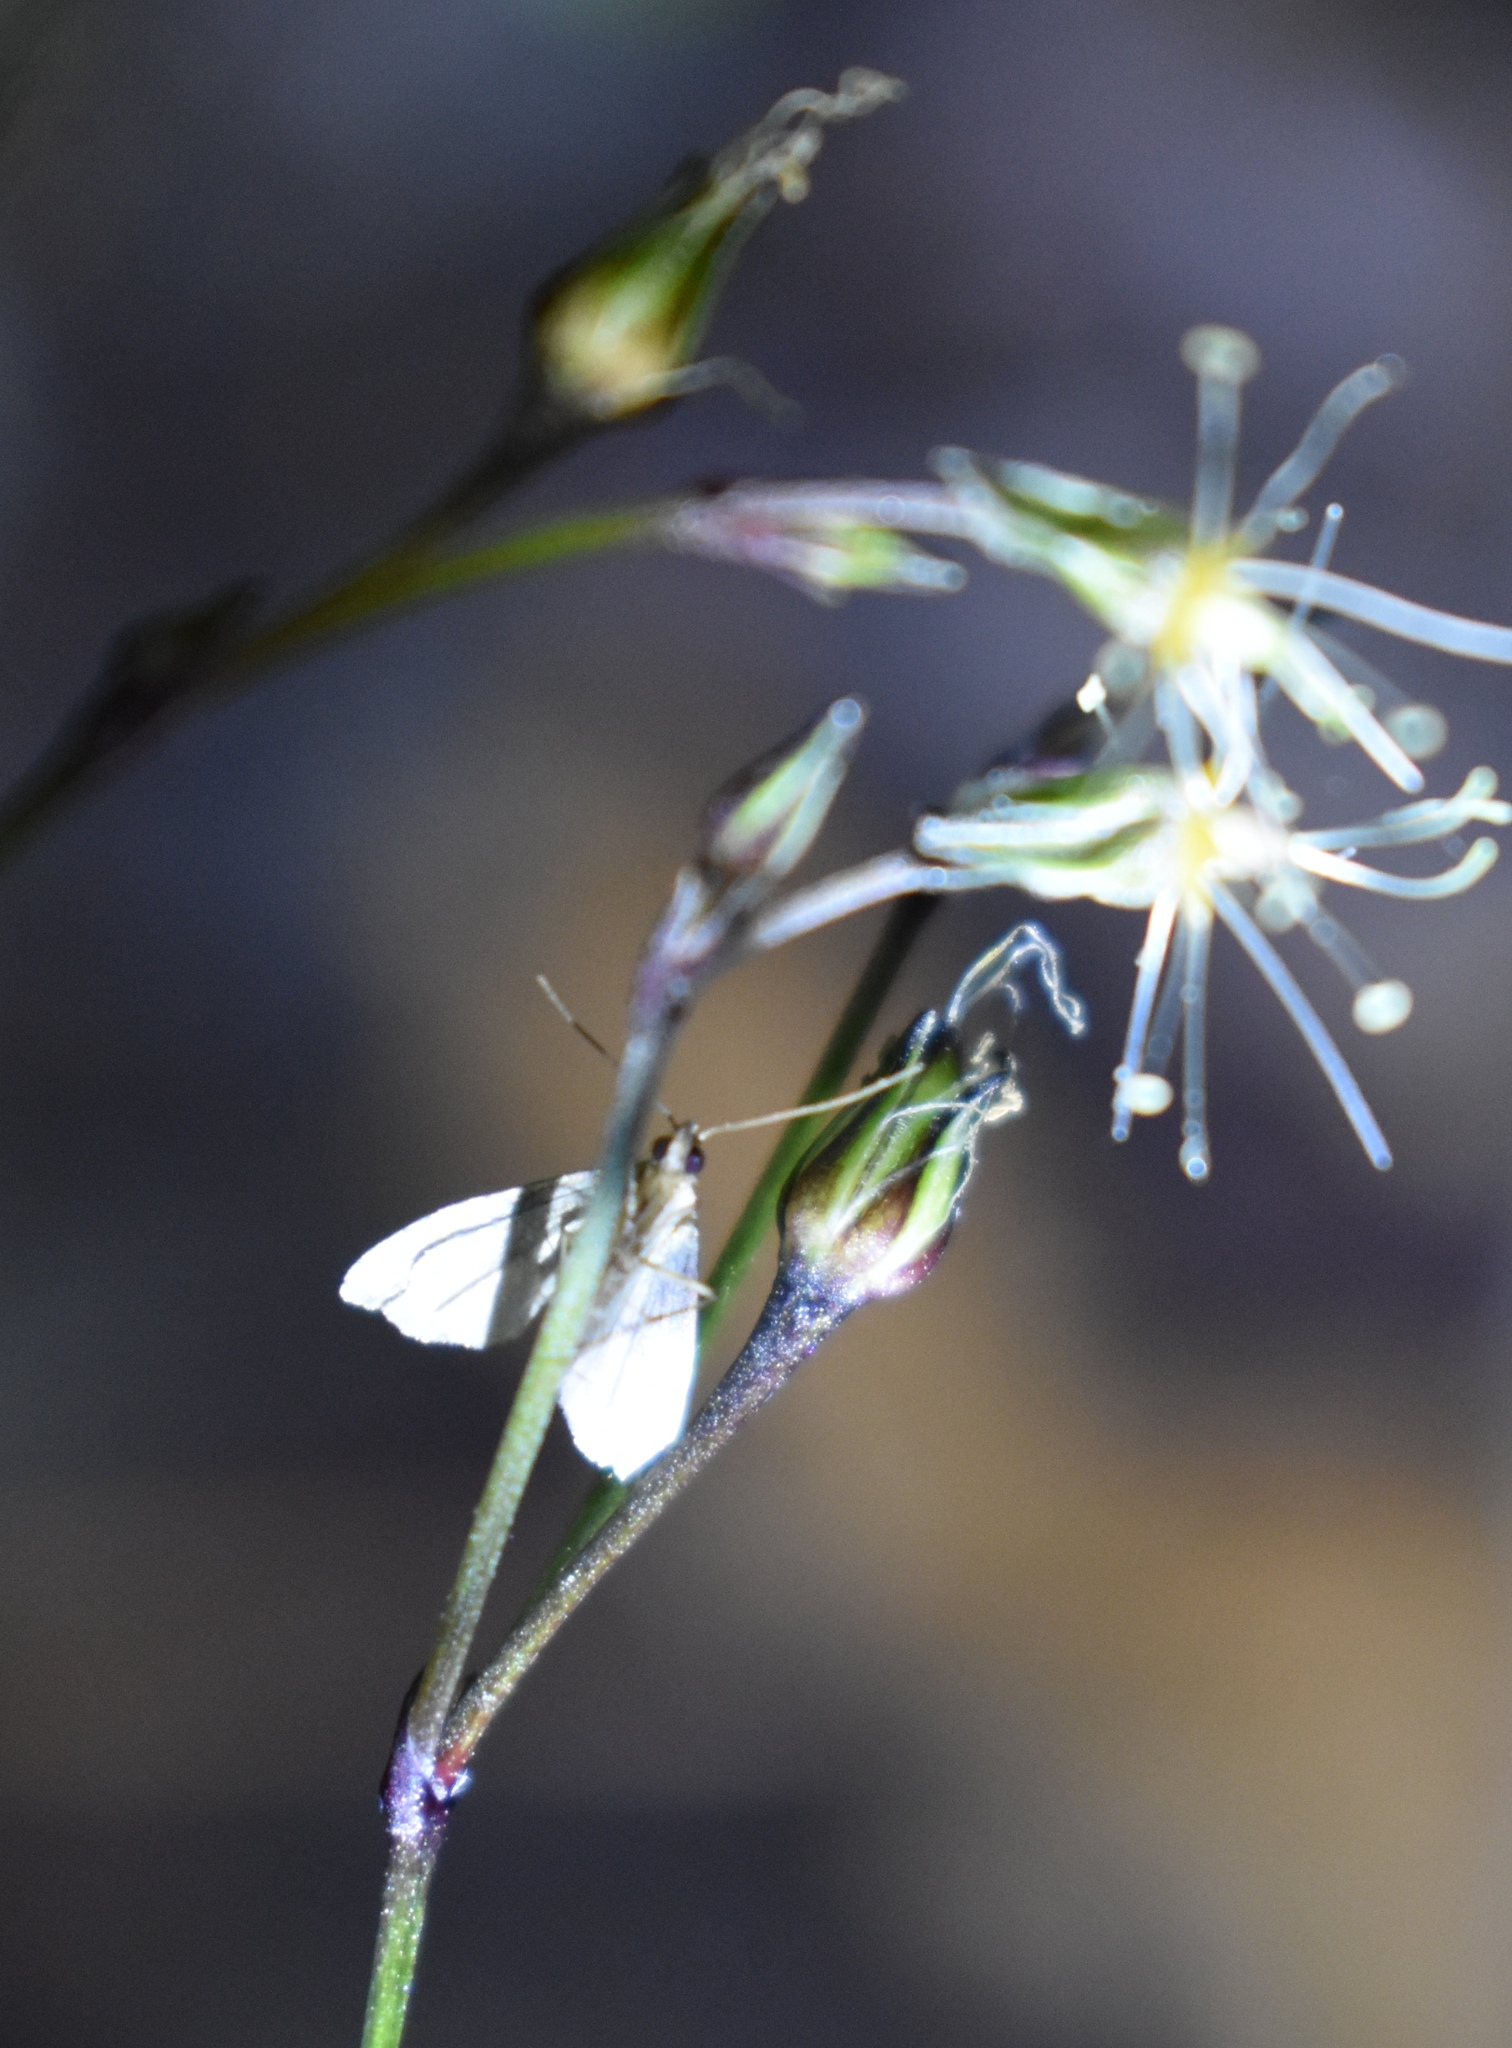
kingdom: Animalia
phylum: Arthropoda
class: Insecta
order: Lepidoptera
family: Erebidae
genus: Pseudoschrankia
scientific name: Pseudoschrankia brevipalpis
